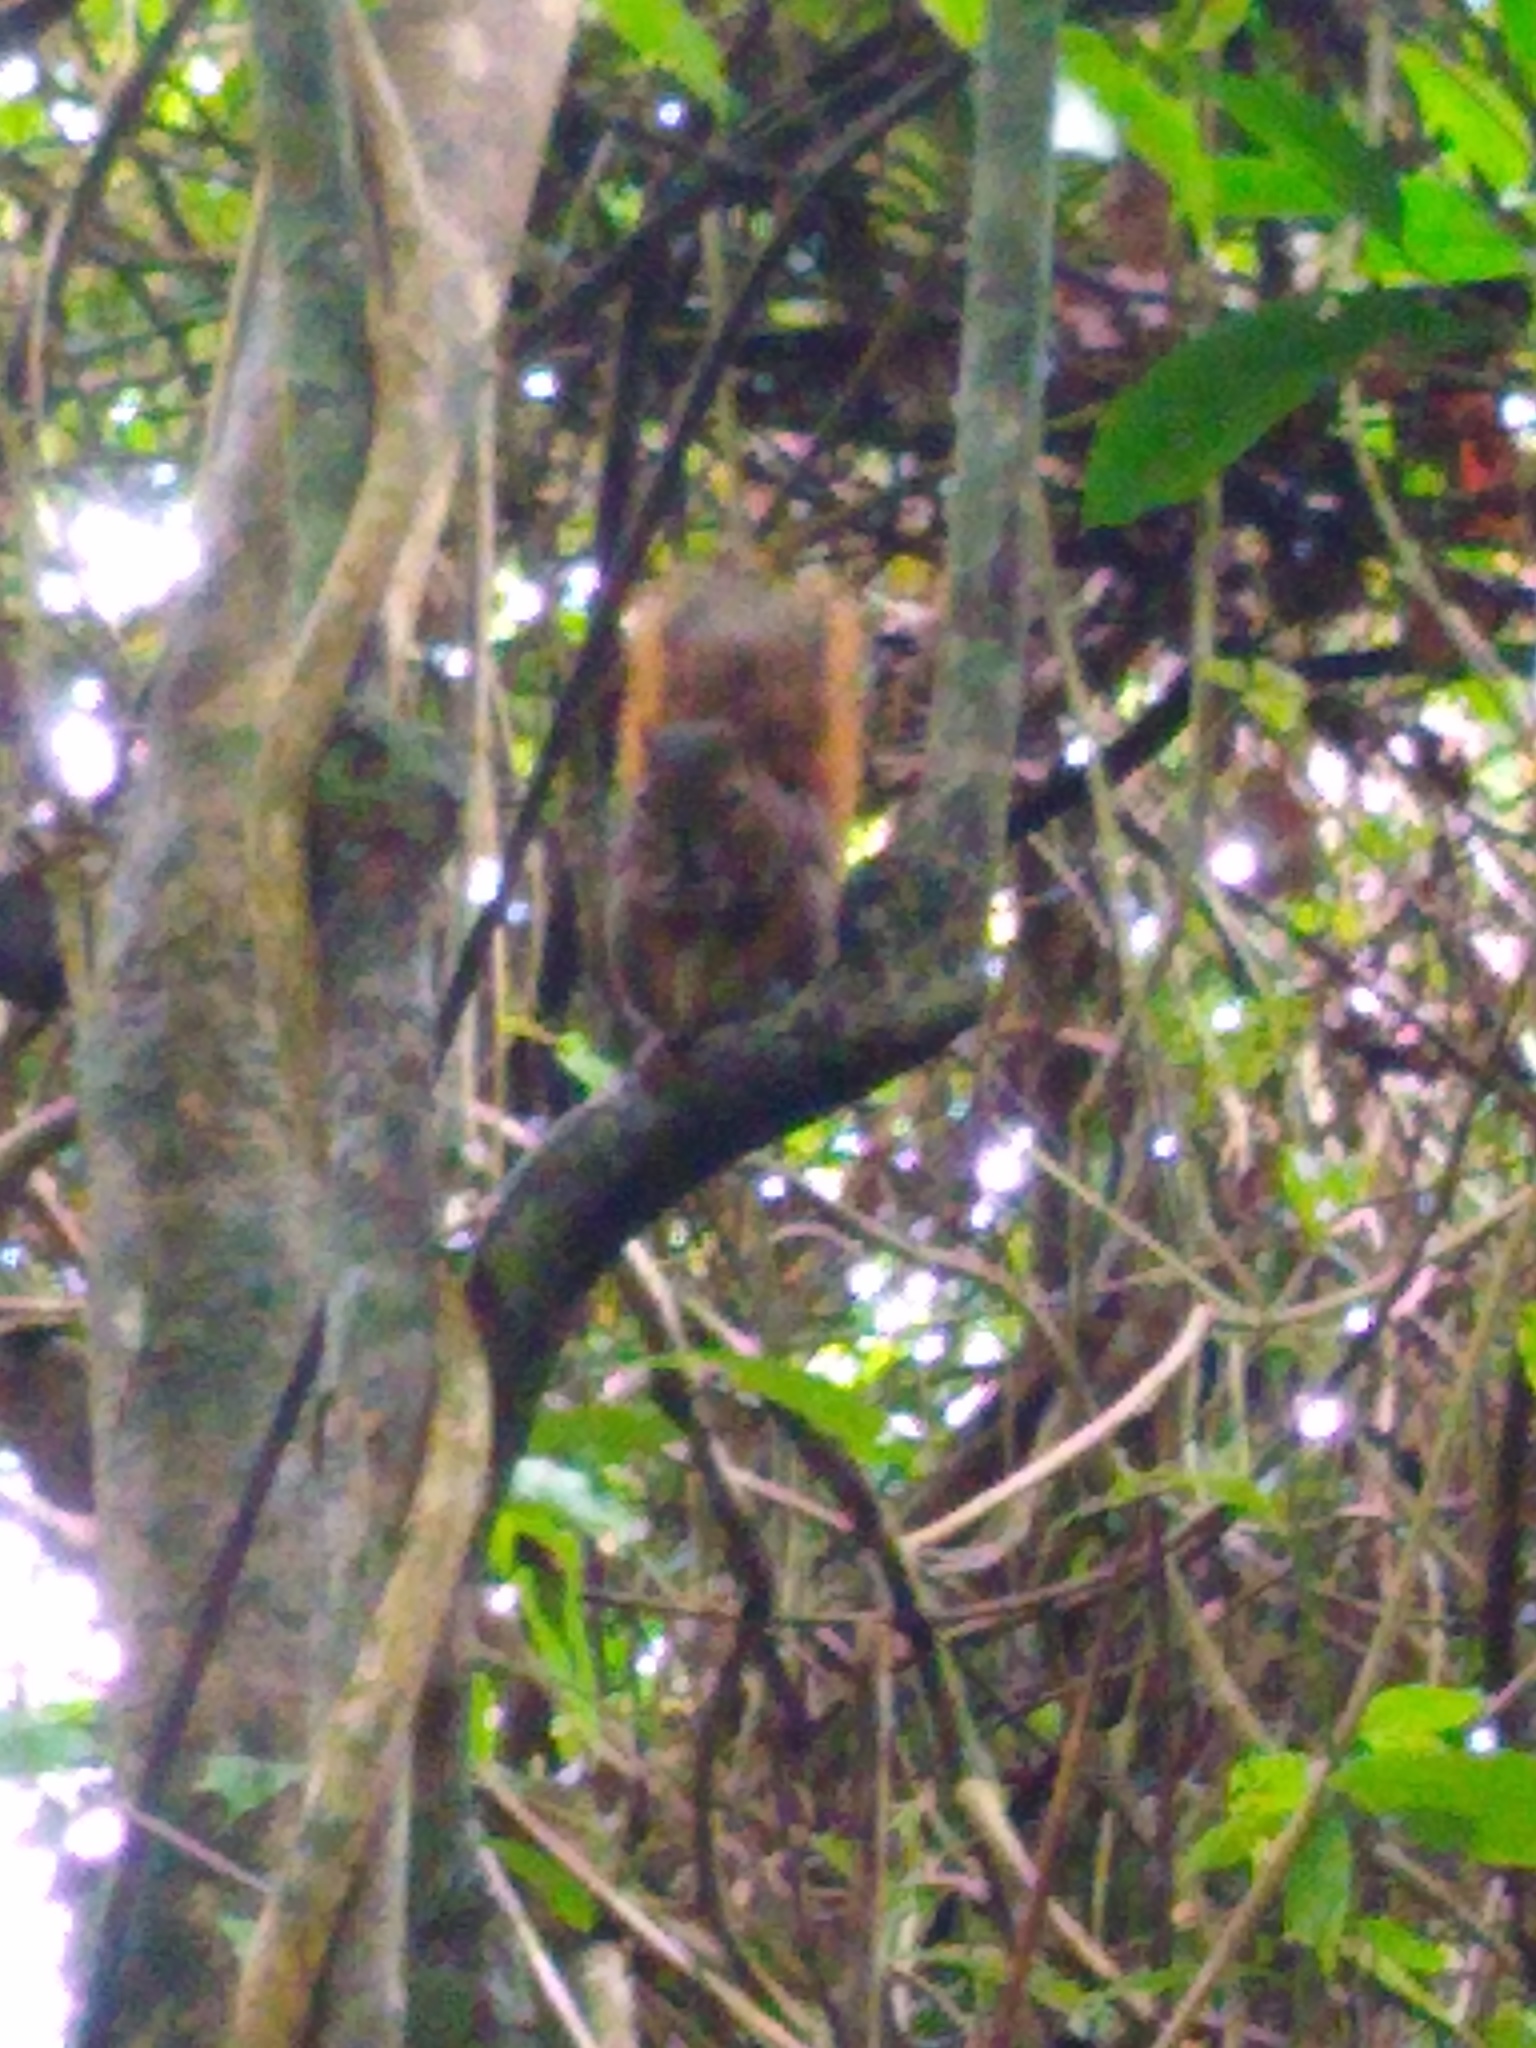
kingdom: Animalia
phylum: Chordata
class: Mammalia
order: Rodentia
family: Sciuridae
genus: Sciurus
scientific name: Sciurus granatensis
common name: Red-tailed squirrel
